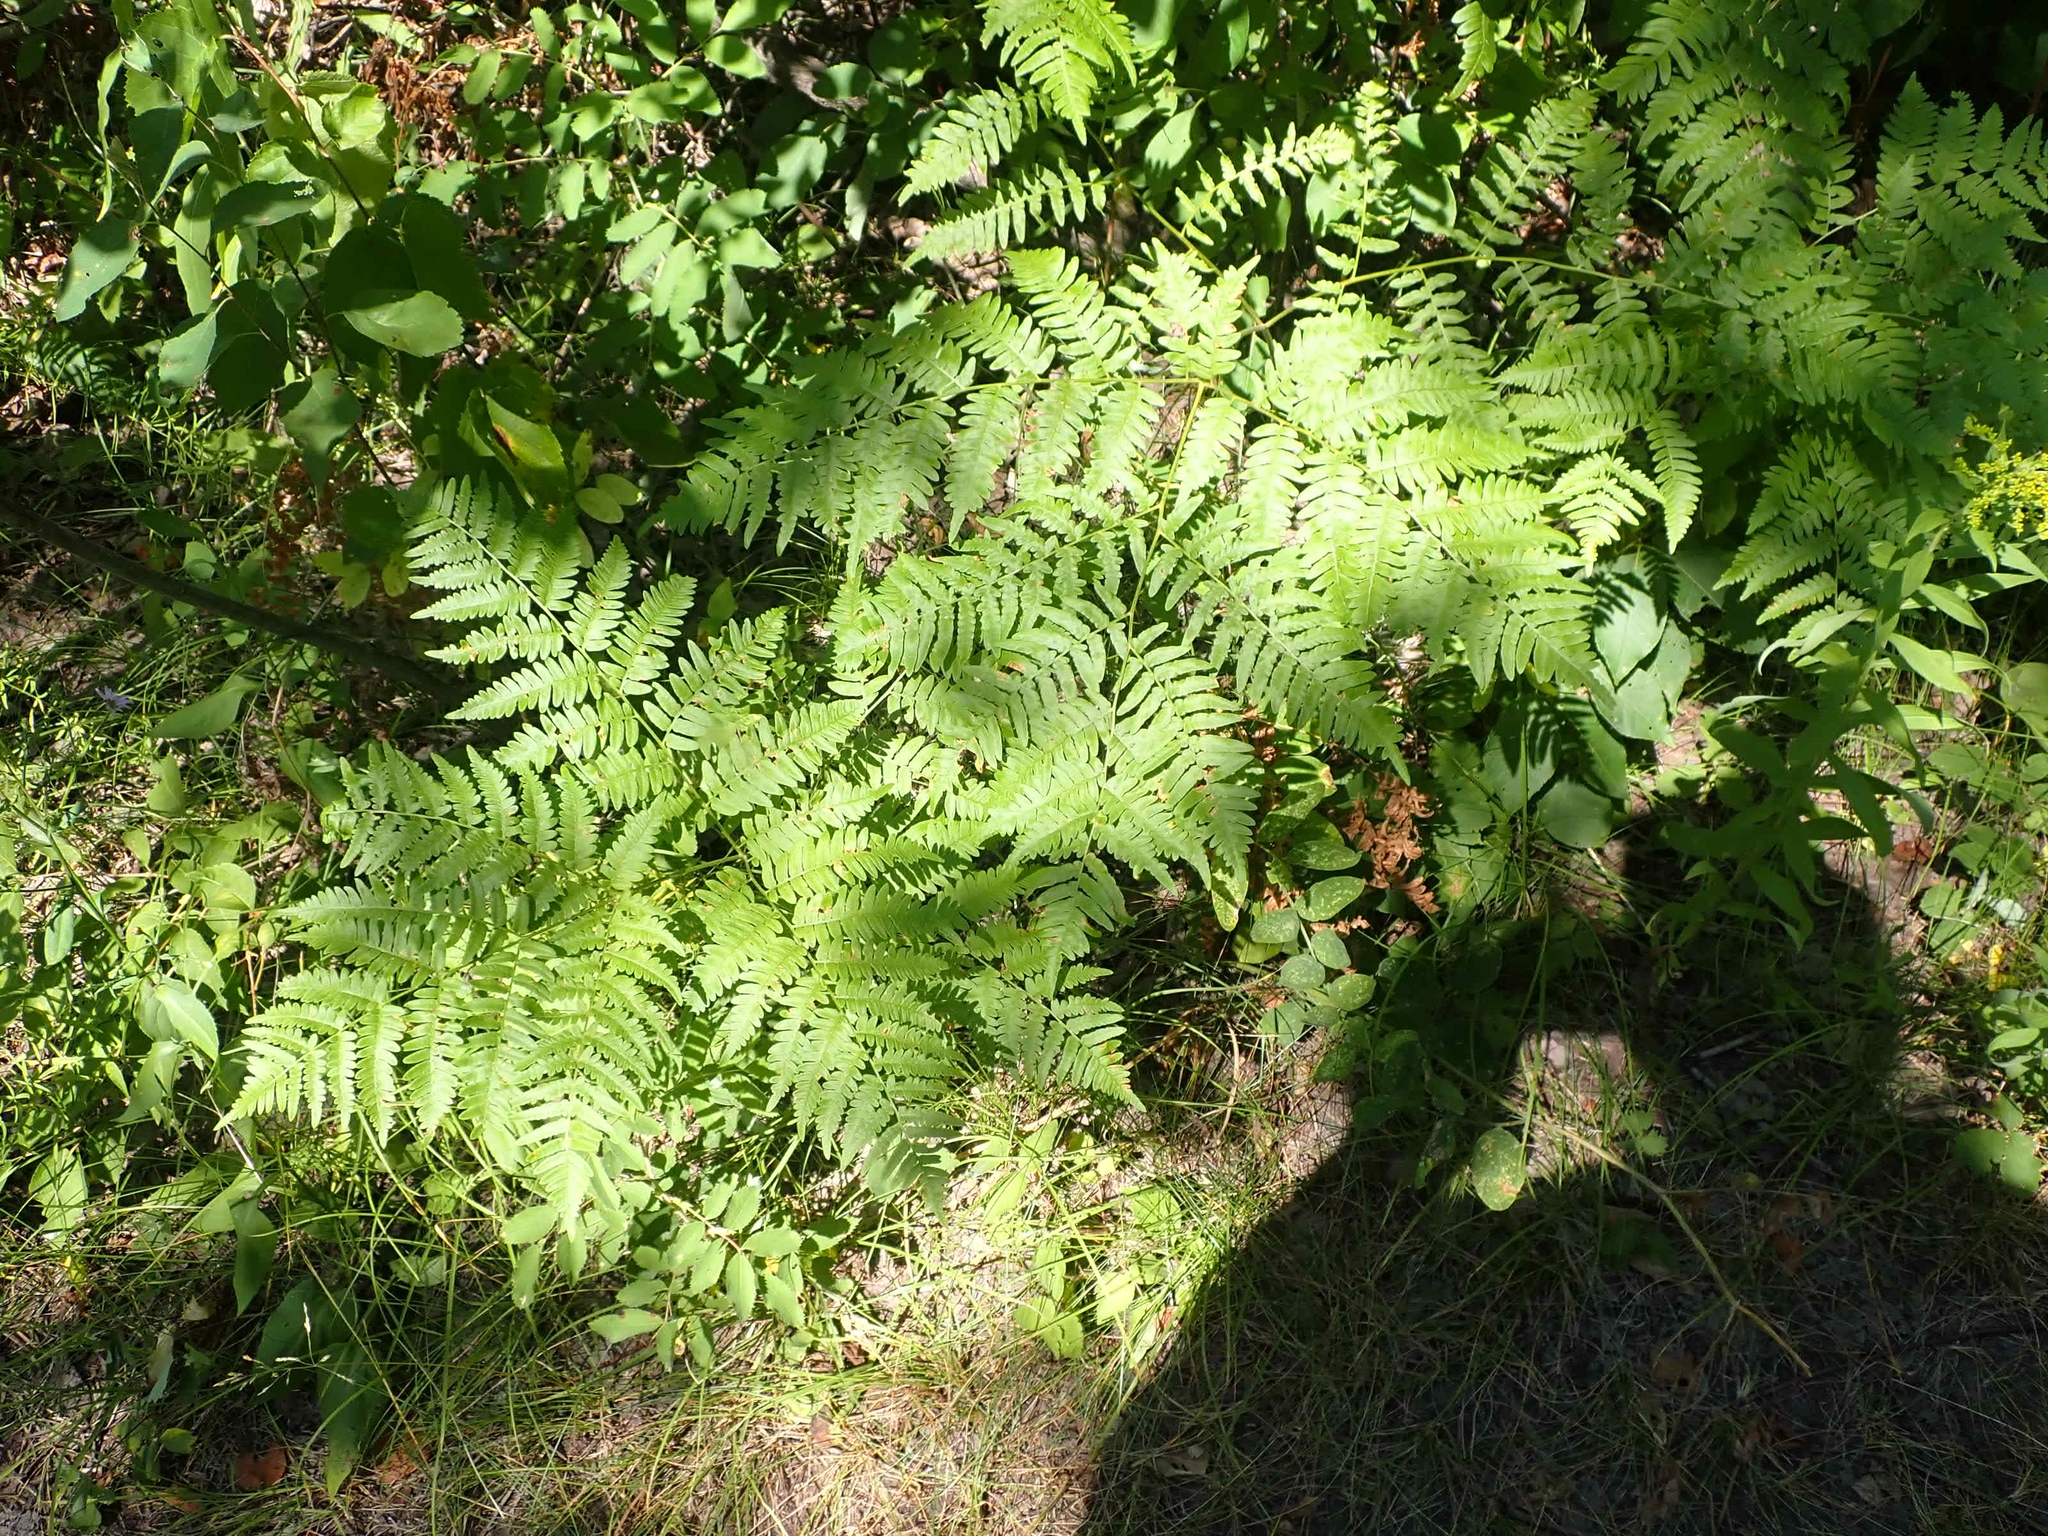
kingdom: Plantae
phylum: Tracheophyta
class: Polypodiopsida
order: Polypodiales
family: Dennstaedtiaceae
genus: Pteridium
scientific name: Pteridium aquilinum
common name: Bracken
